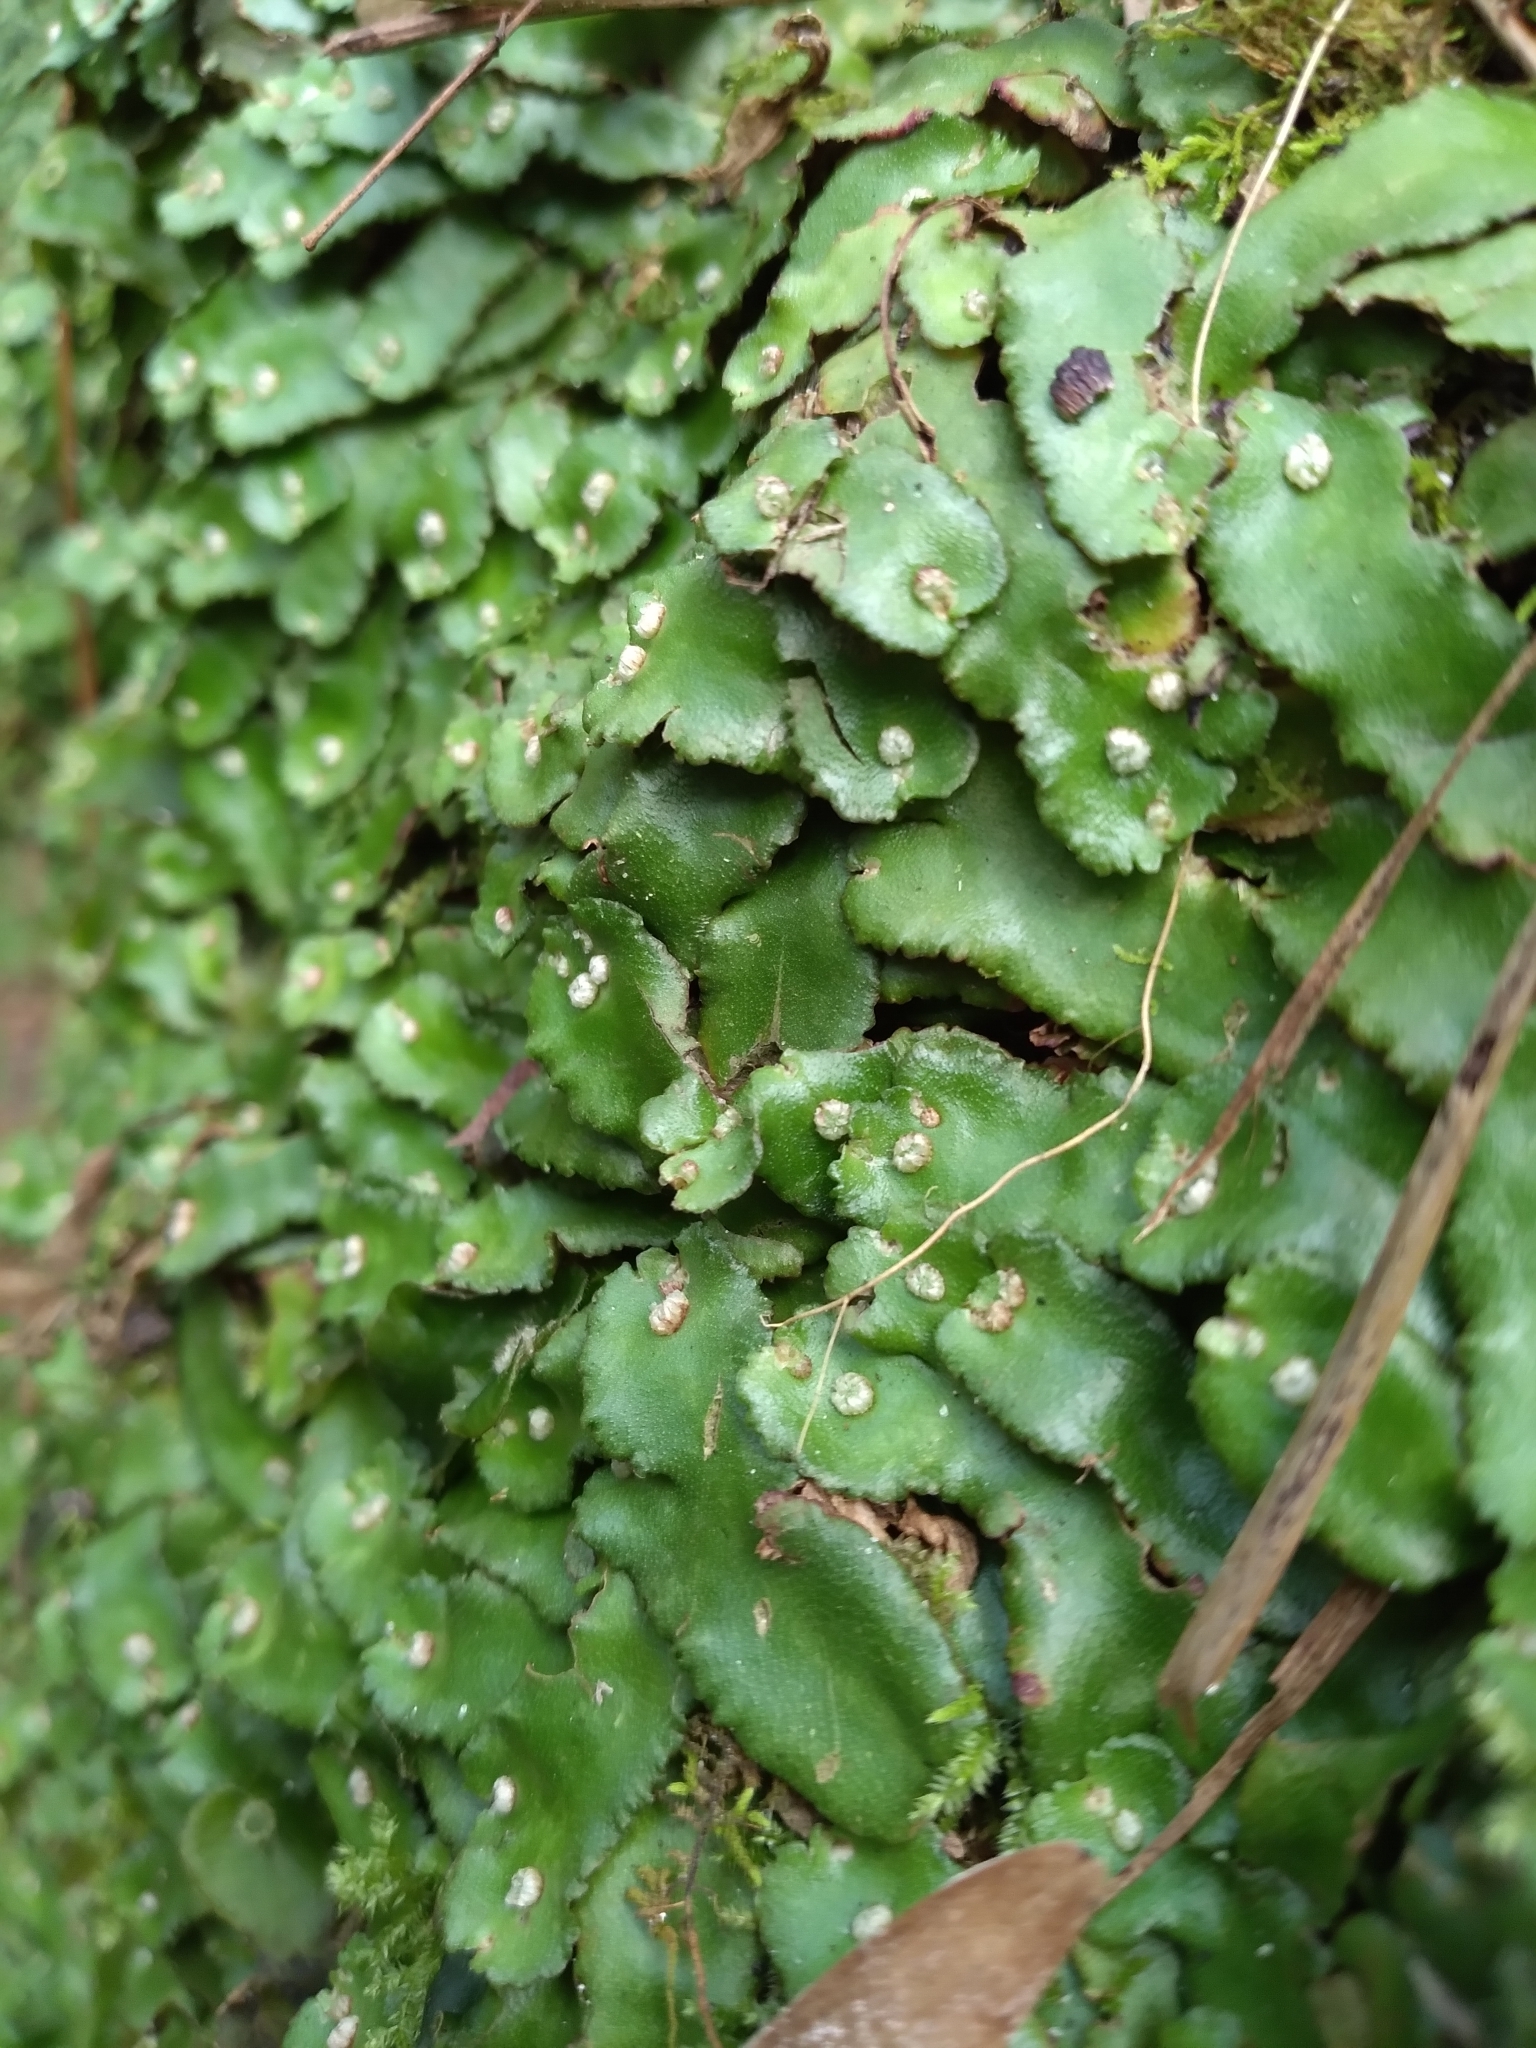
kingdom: Plantae
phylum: Marchantiophyta
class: Marchantiopsida
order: Marchantiales
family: Aytoniaceae
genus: Plagiochasma
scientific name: Plagiochasma crenulatum
